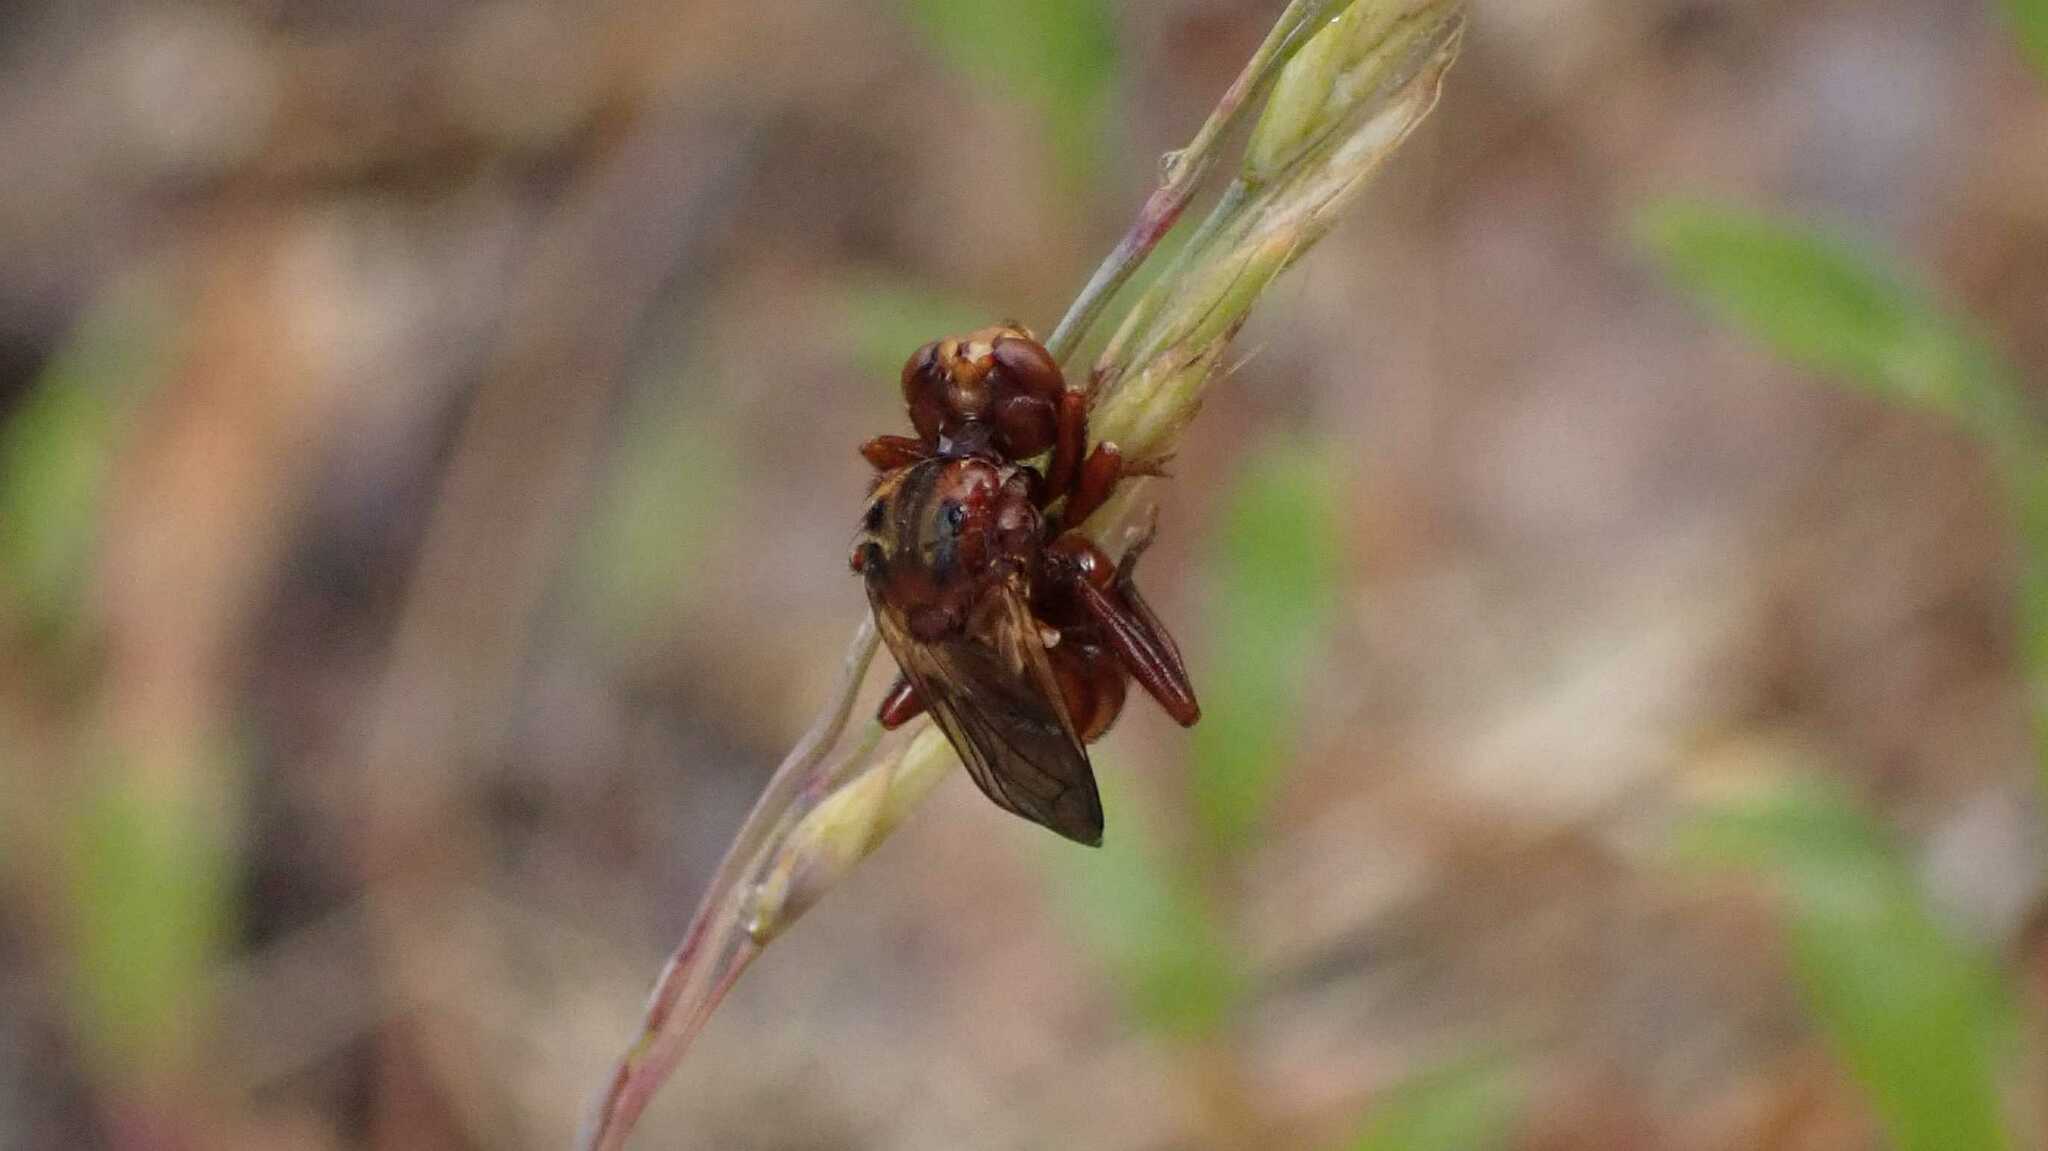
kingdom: Animalia
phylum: Arthropoda
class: Insecta
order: Diptera
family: Conopidae
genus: Sicus
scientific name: Sicus
